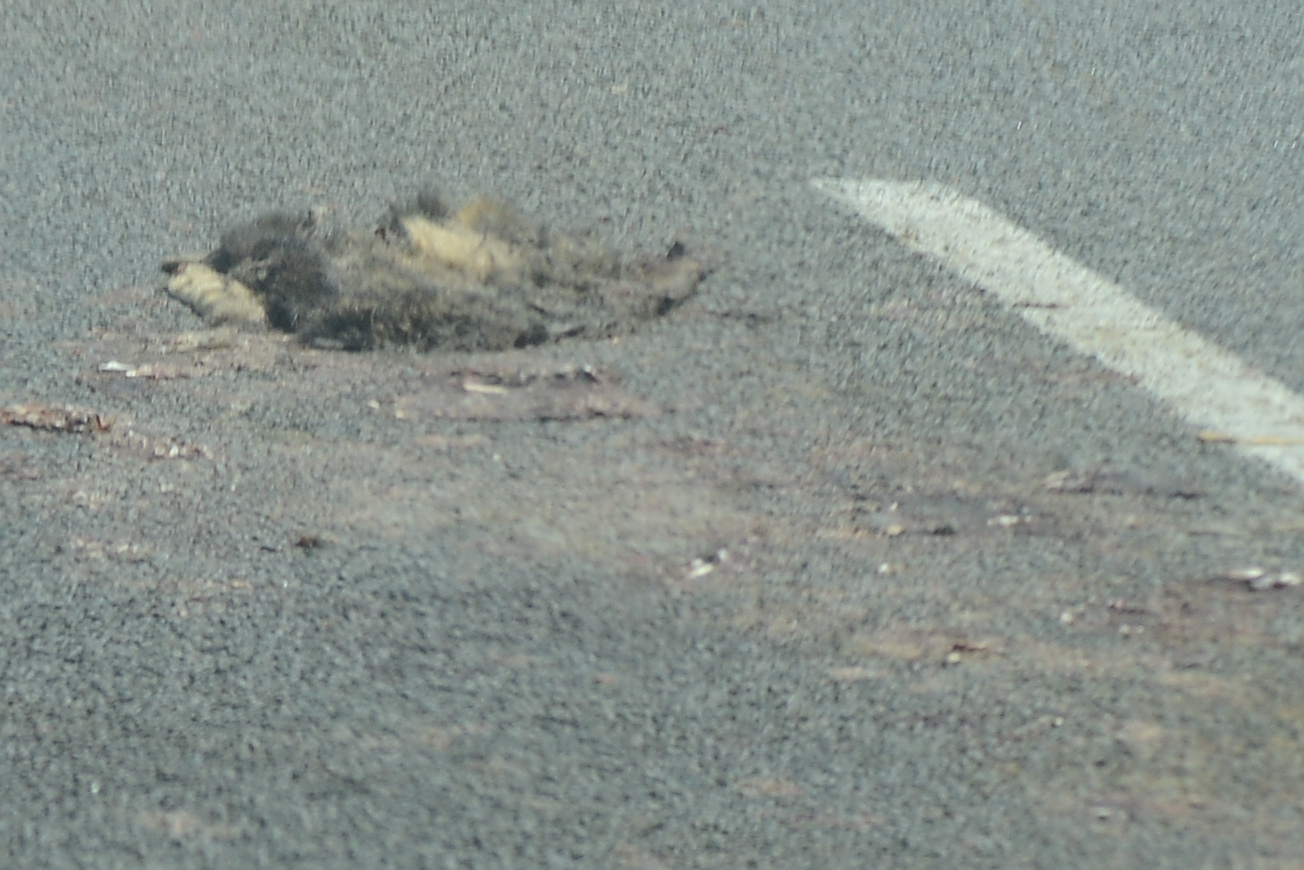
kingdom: Animalia
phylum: Chordata
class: Mammalia
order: Diprotodontia
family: Phalangeridae
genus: Trichosurus
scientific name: Trichosurus vulpecula
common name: Common brushtail
